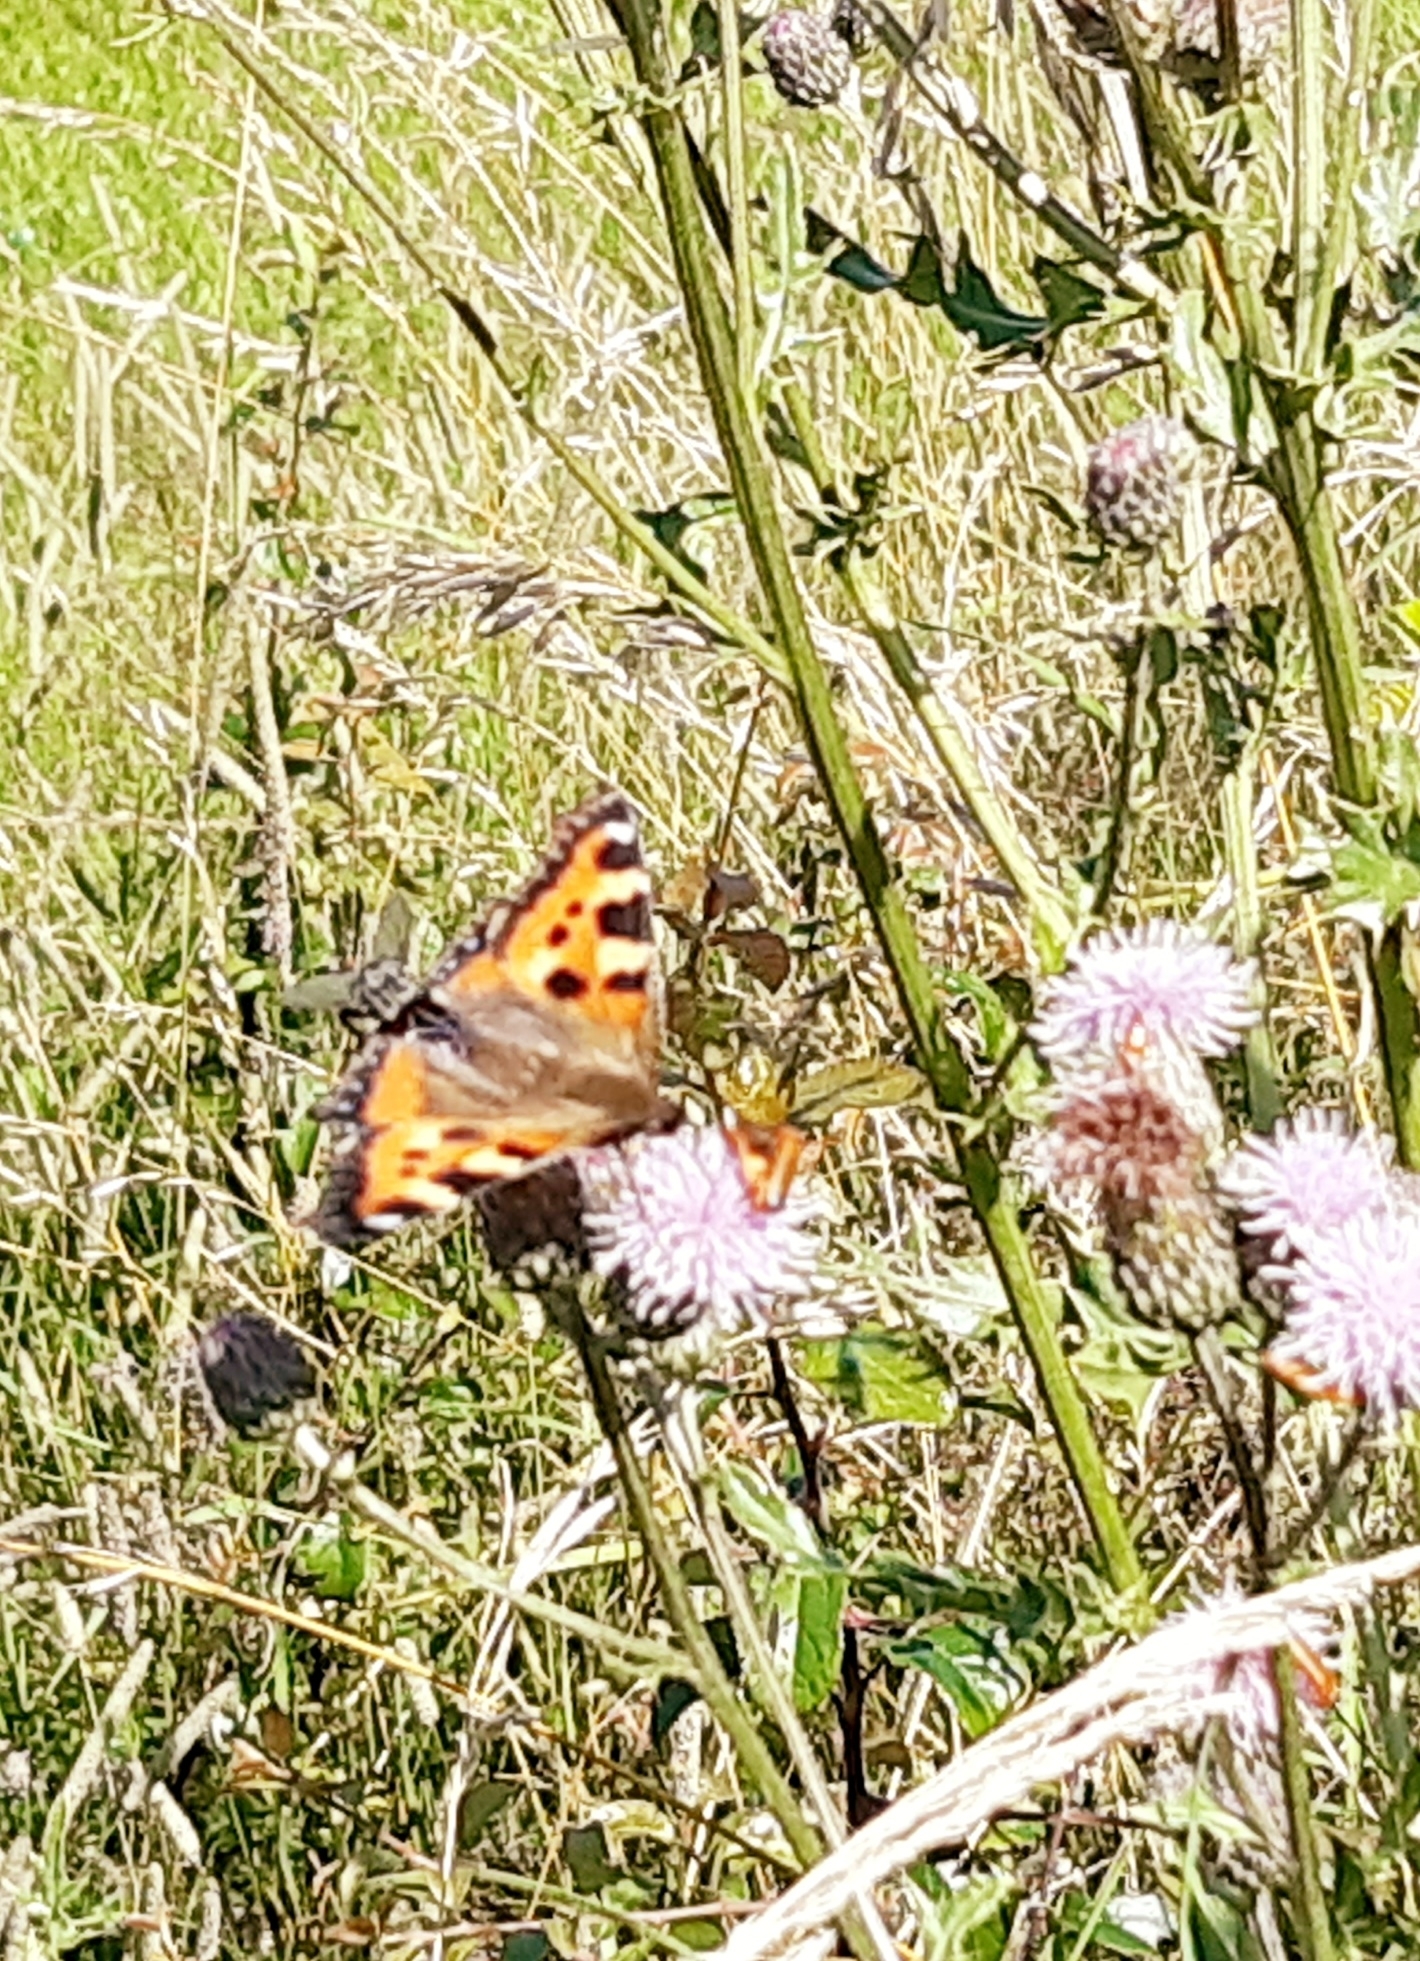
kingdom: Animalia
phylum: Arthropoda
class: Insecta
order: Lepidoptera
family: Nymphalidae
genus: Aglais
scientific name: Aglais urticae
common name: Small tortoiseshell
